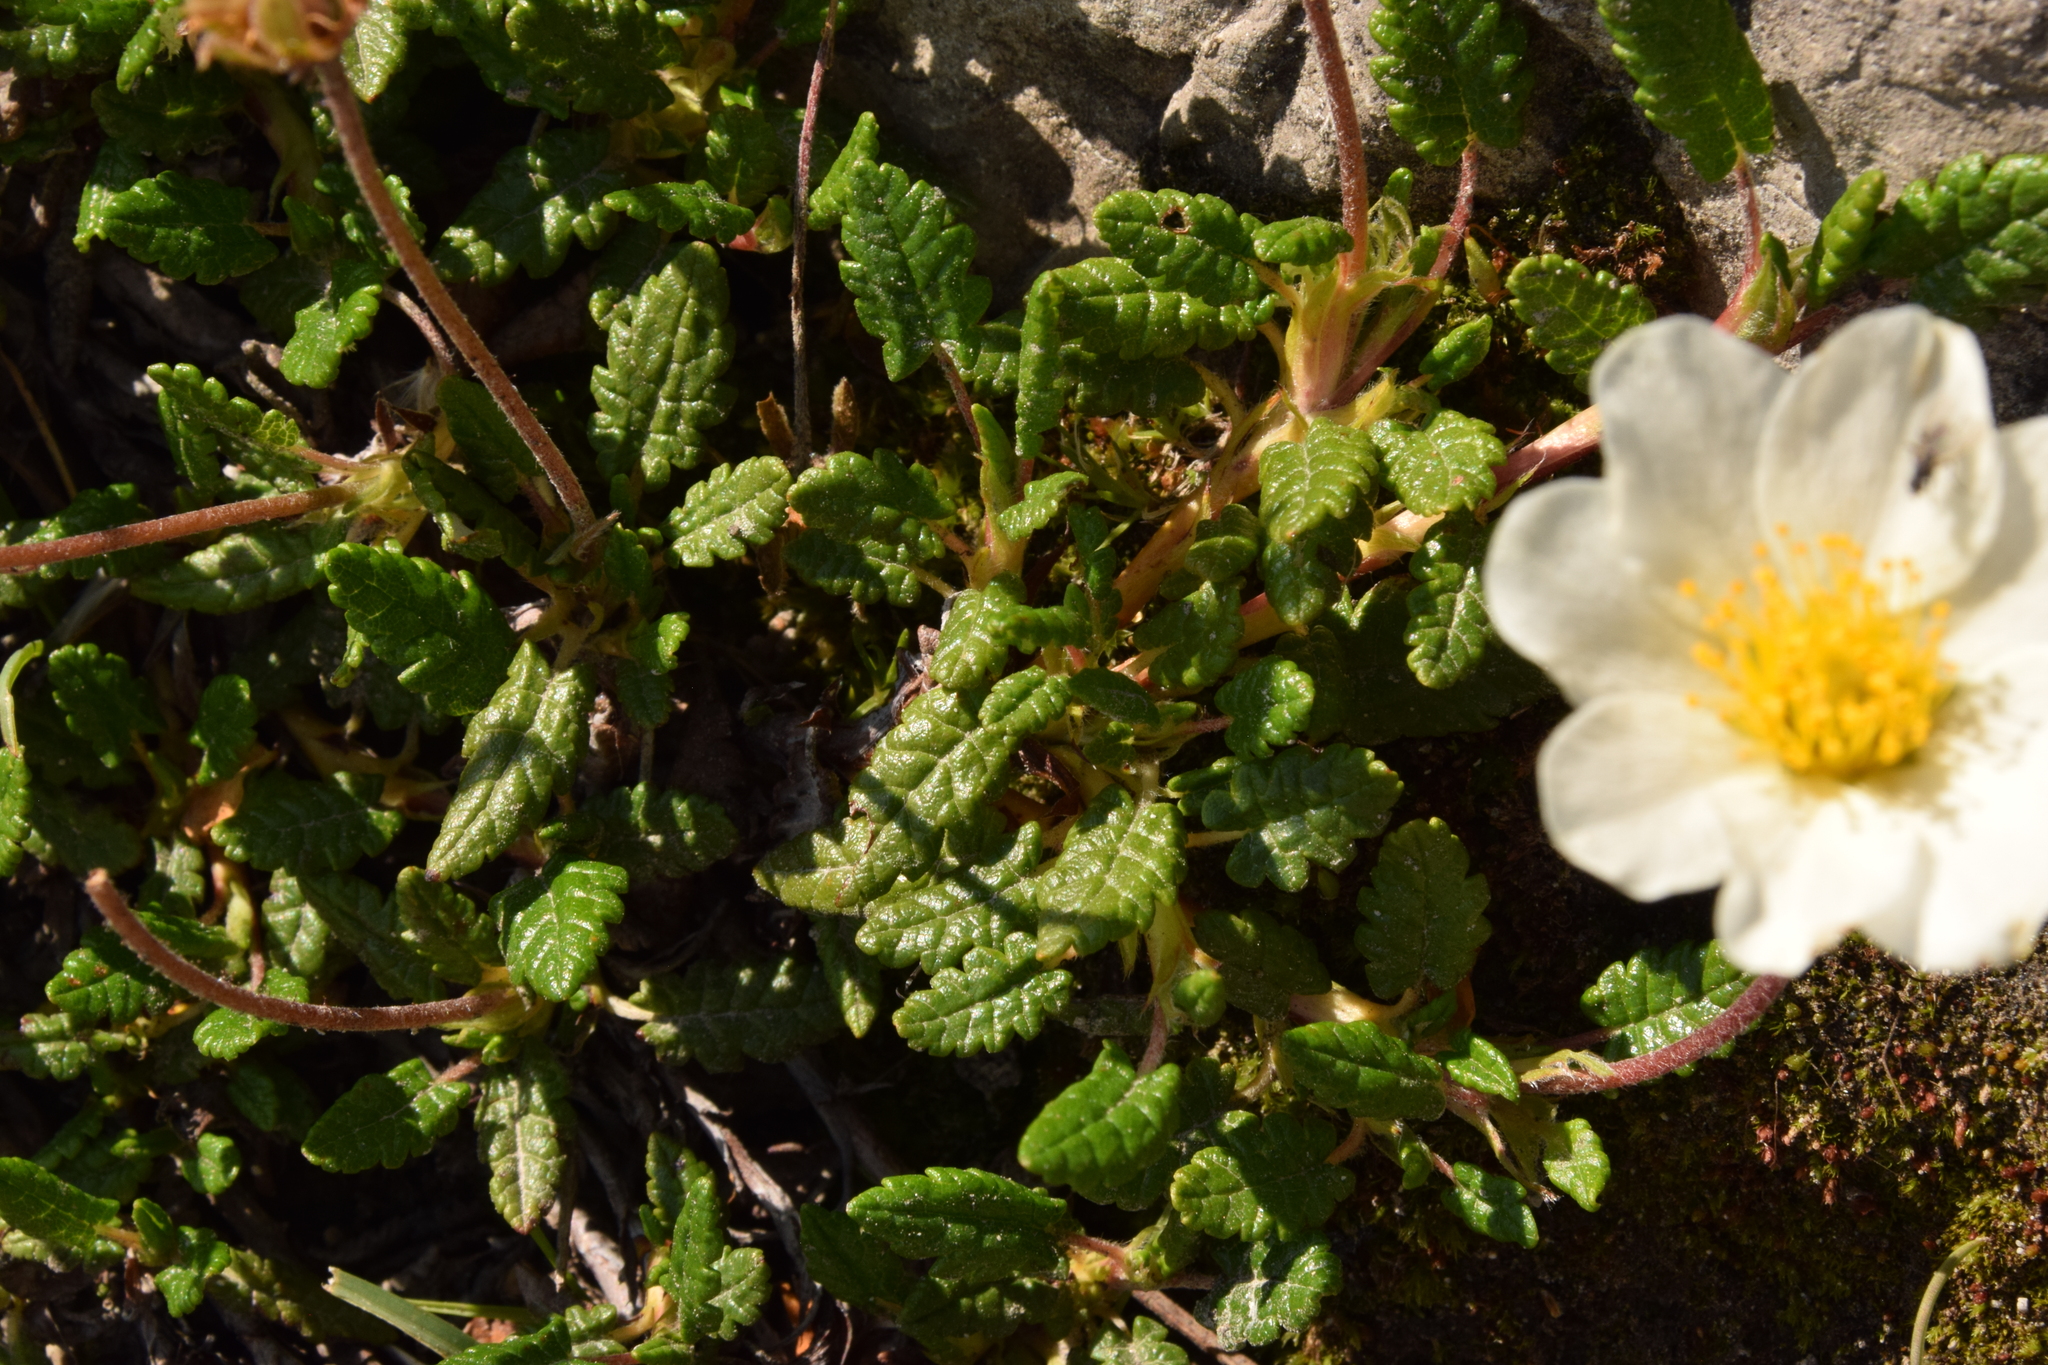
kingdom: Plantae
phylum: Tracheophyta
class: Magnoliopsida
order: Rosales
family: Rosaceae
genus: Dryas
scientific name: Dryas octopetala
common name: Eight-petal mountain-avens
